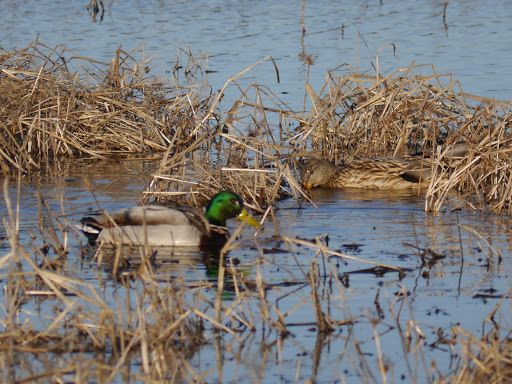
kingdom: Animalia
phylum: Chordata
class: Aves
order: Anseriformes
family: Anatidae
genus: Anas
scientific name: Anas platyrhynchos
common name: Mallard
